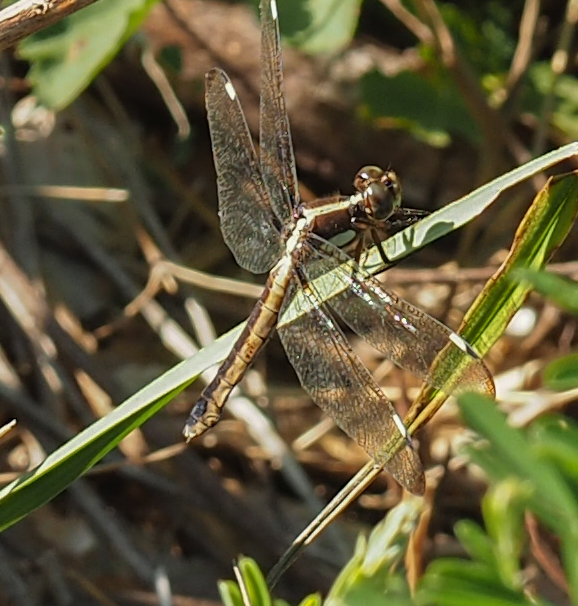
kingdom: Animalia
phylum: Arthropoda
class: Insecta
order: Odonata
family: Libellulidae
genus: Libellula
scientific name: Libellula cyanea
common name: Spangled skimmer
